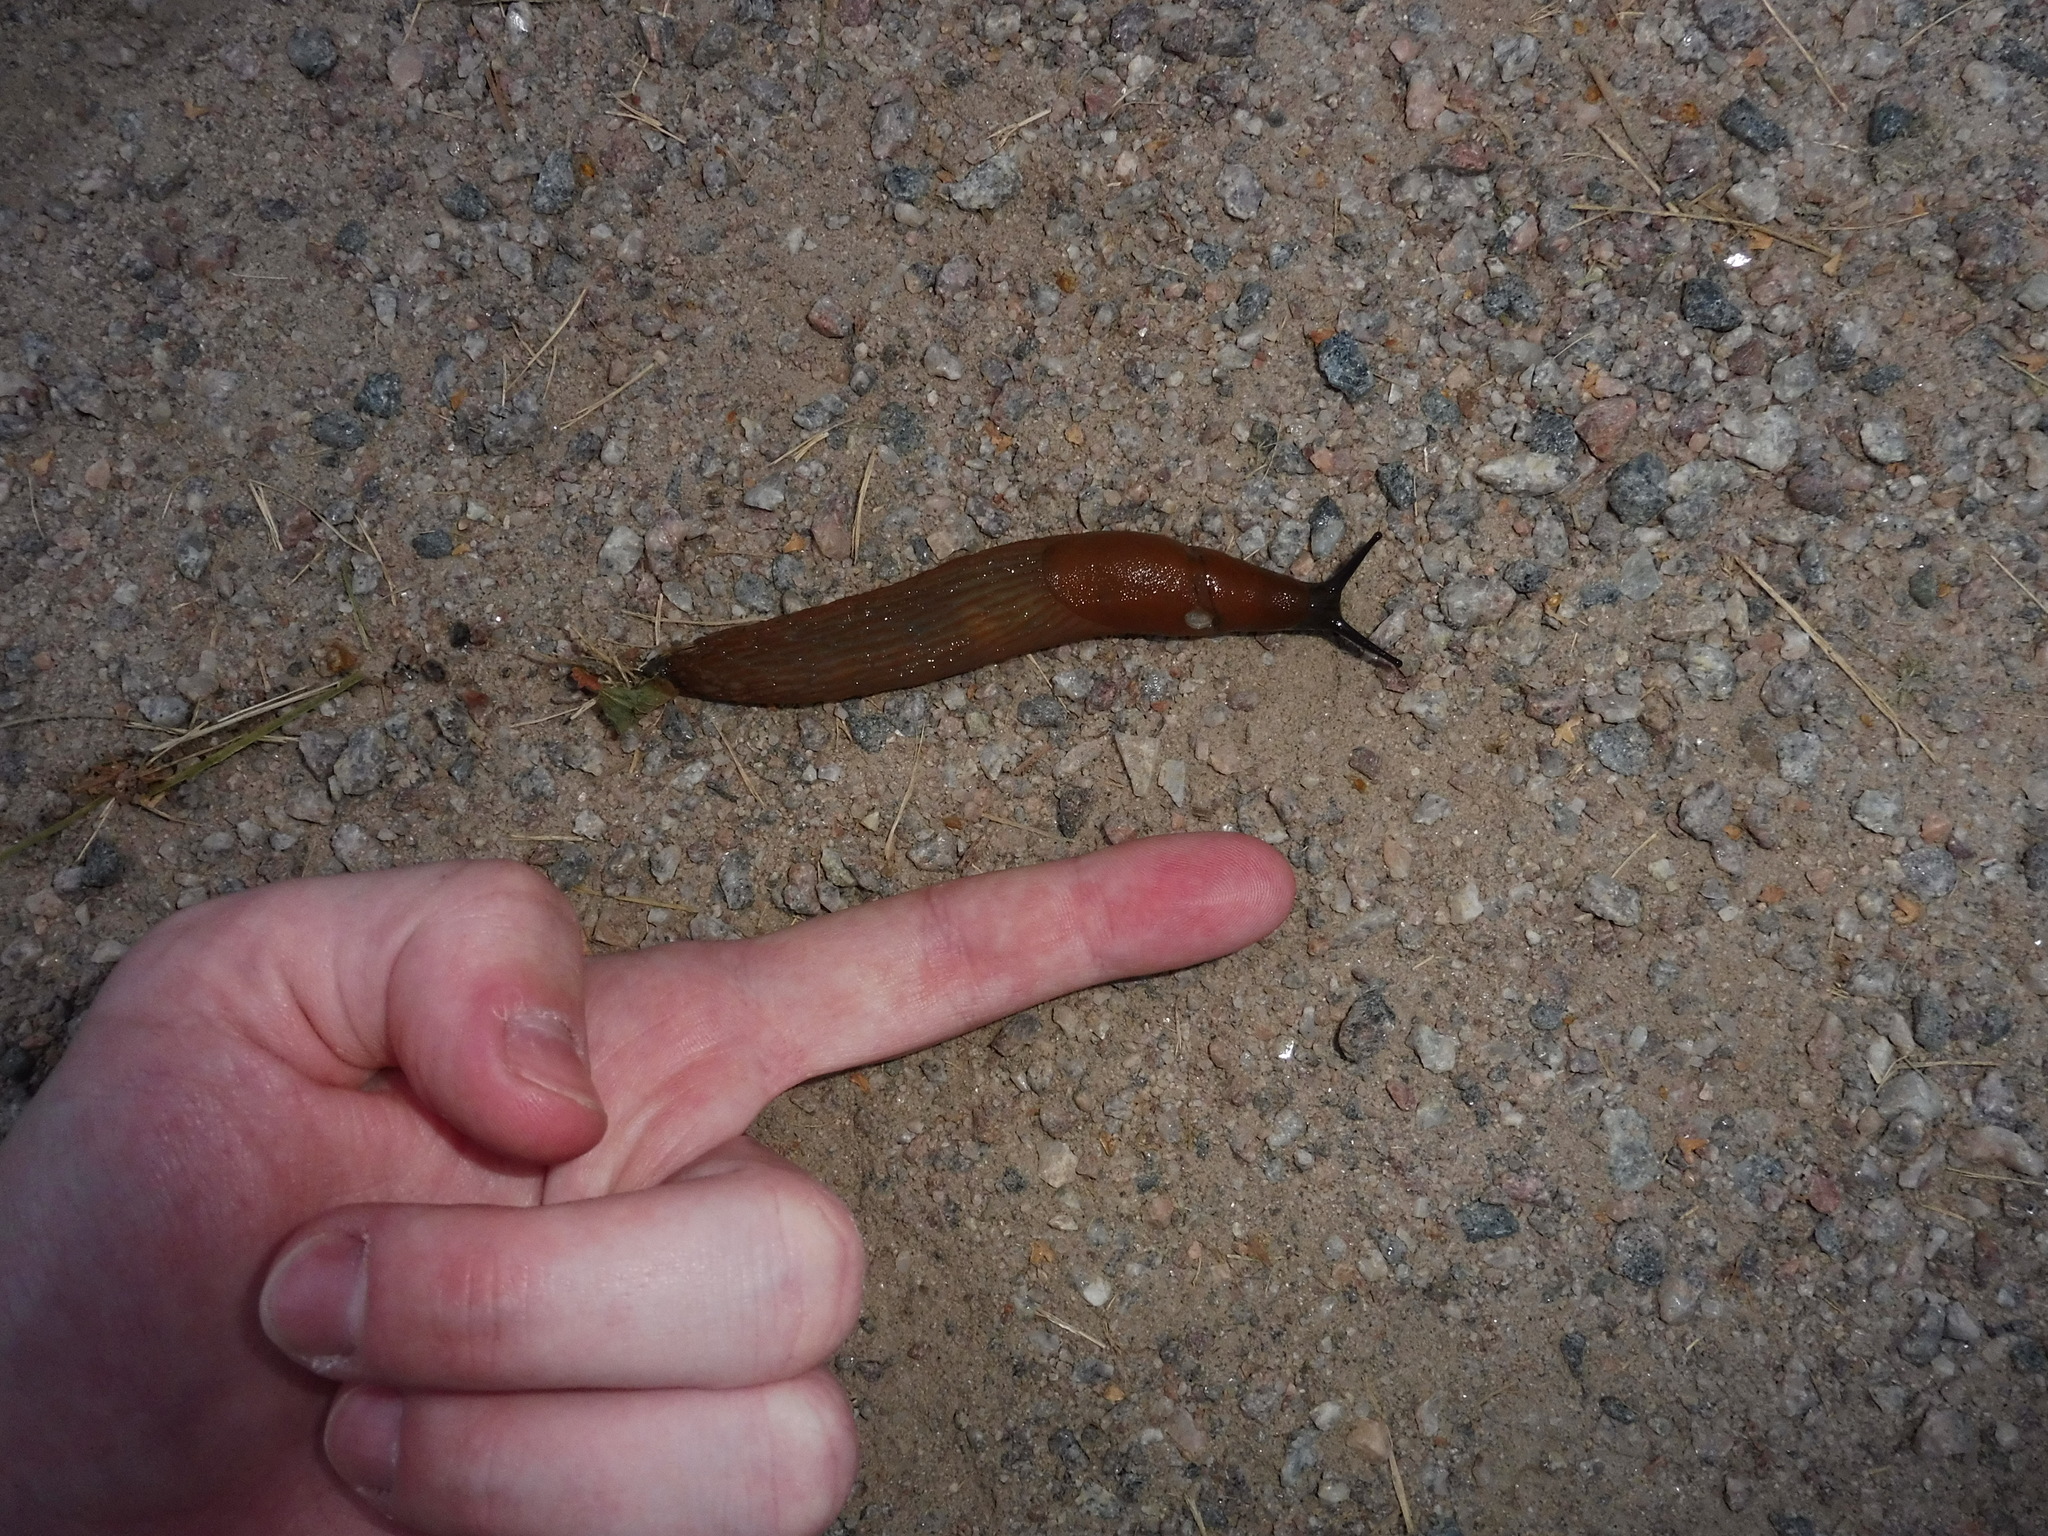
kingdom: Animalia
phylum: Mollusca
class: Gastropoda
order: Stylommatophora
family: Arionidae
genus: Arion
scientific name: Arion vulgaris
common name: Lusitanian slug
